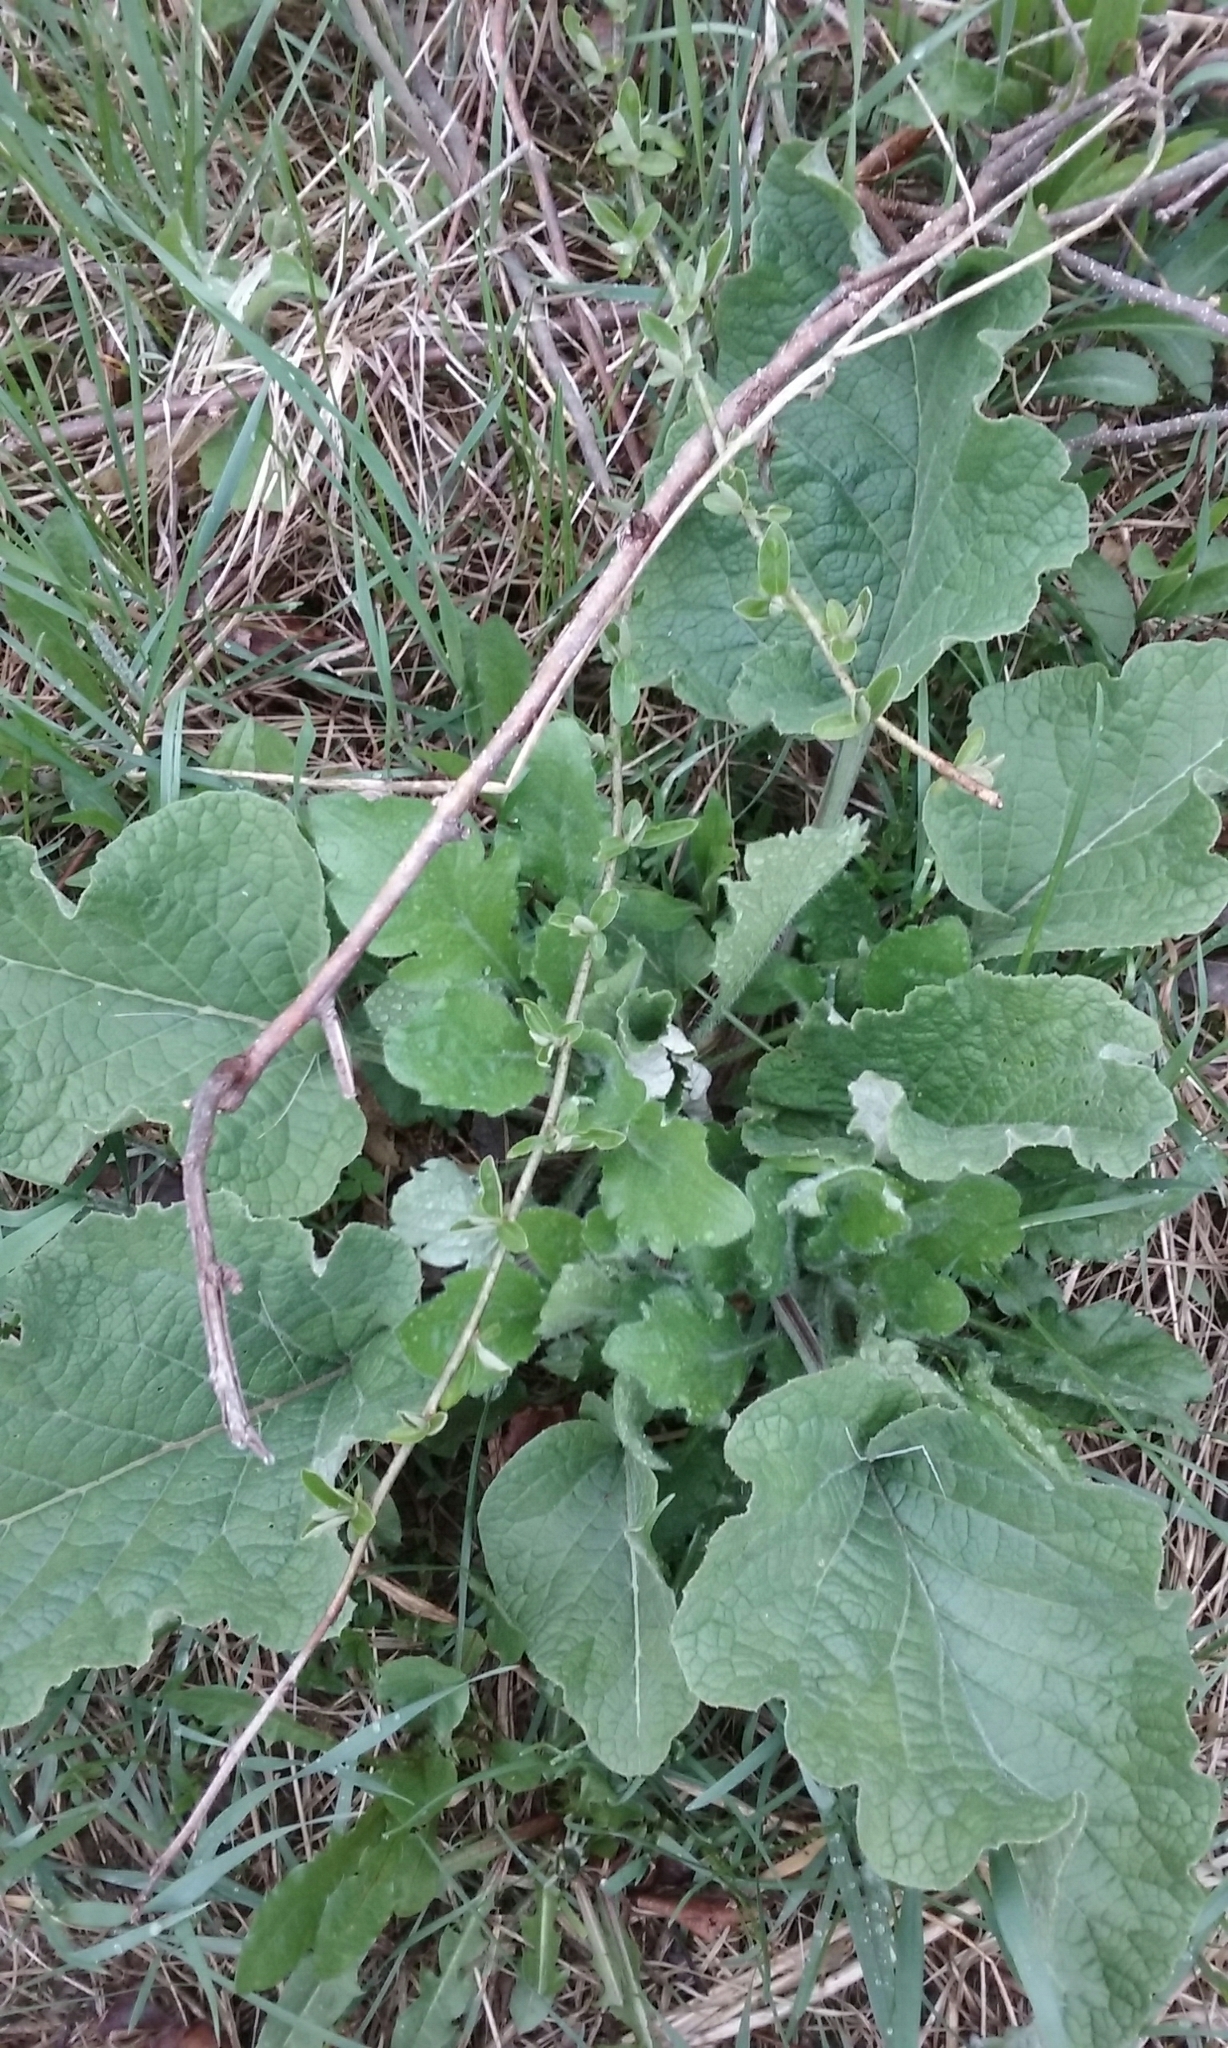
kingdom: Plantae
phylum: Tracheophyta
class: Magnoliopsida
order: Asterales
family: Asteraceae
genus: Arctium
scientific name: Arctium
